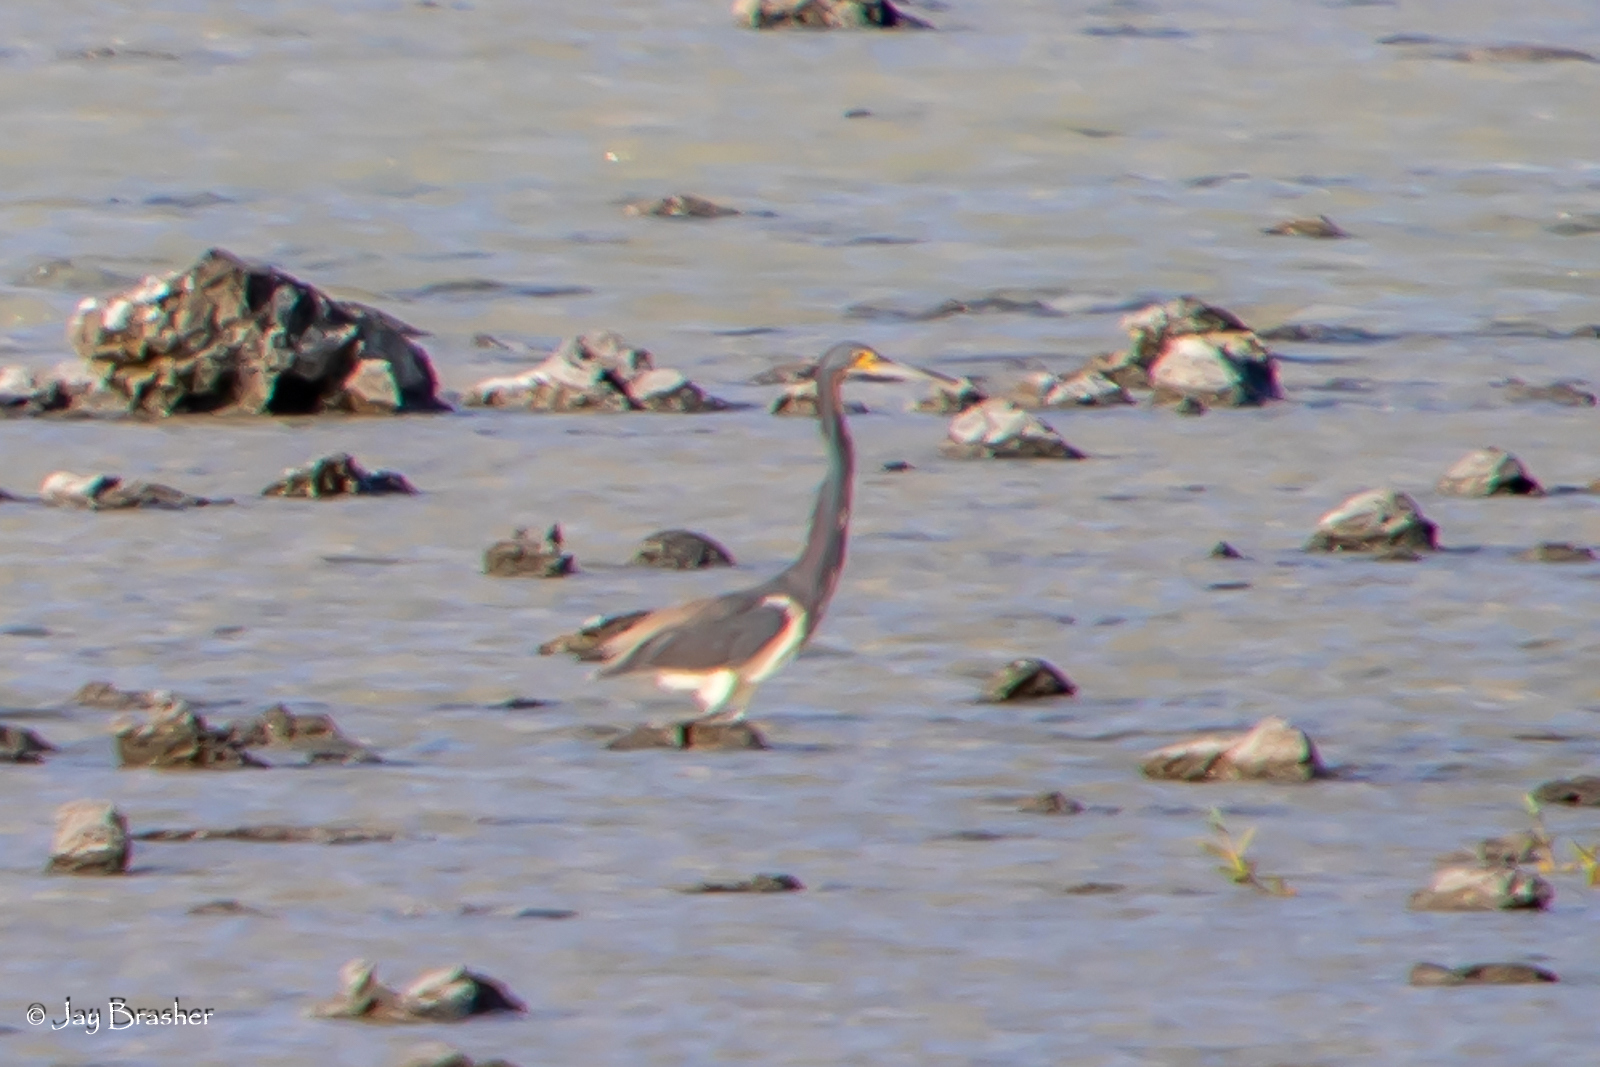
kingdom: Animalia
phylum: Chordata
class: Aves
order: Pelecaniformes
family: Ardeidae
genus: Egretta
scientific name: Egretta tricolor
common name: Tricolored heron
